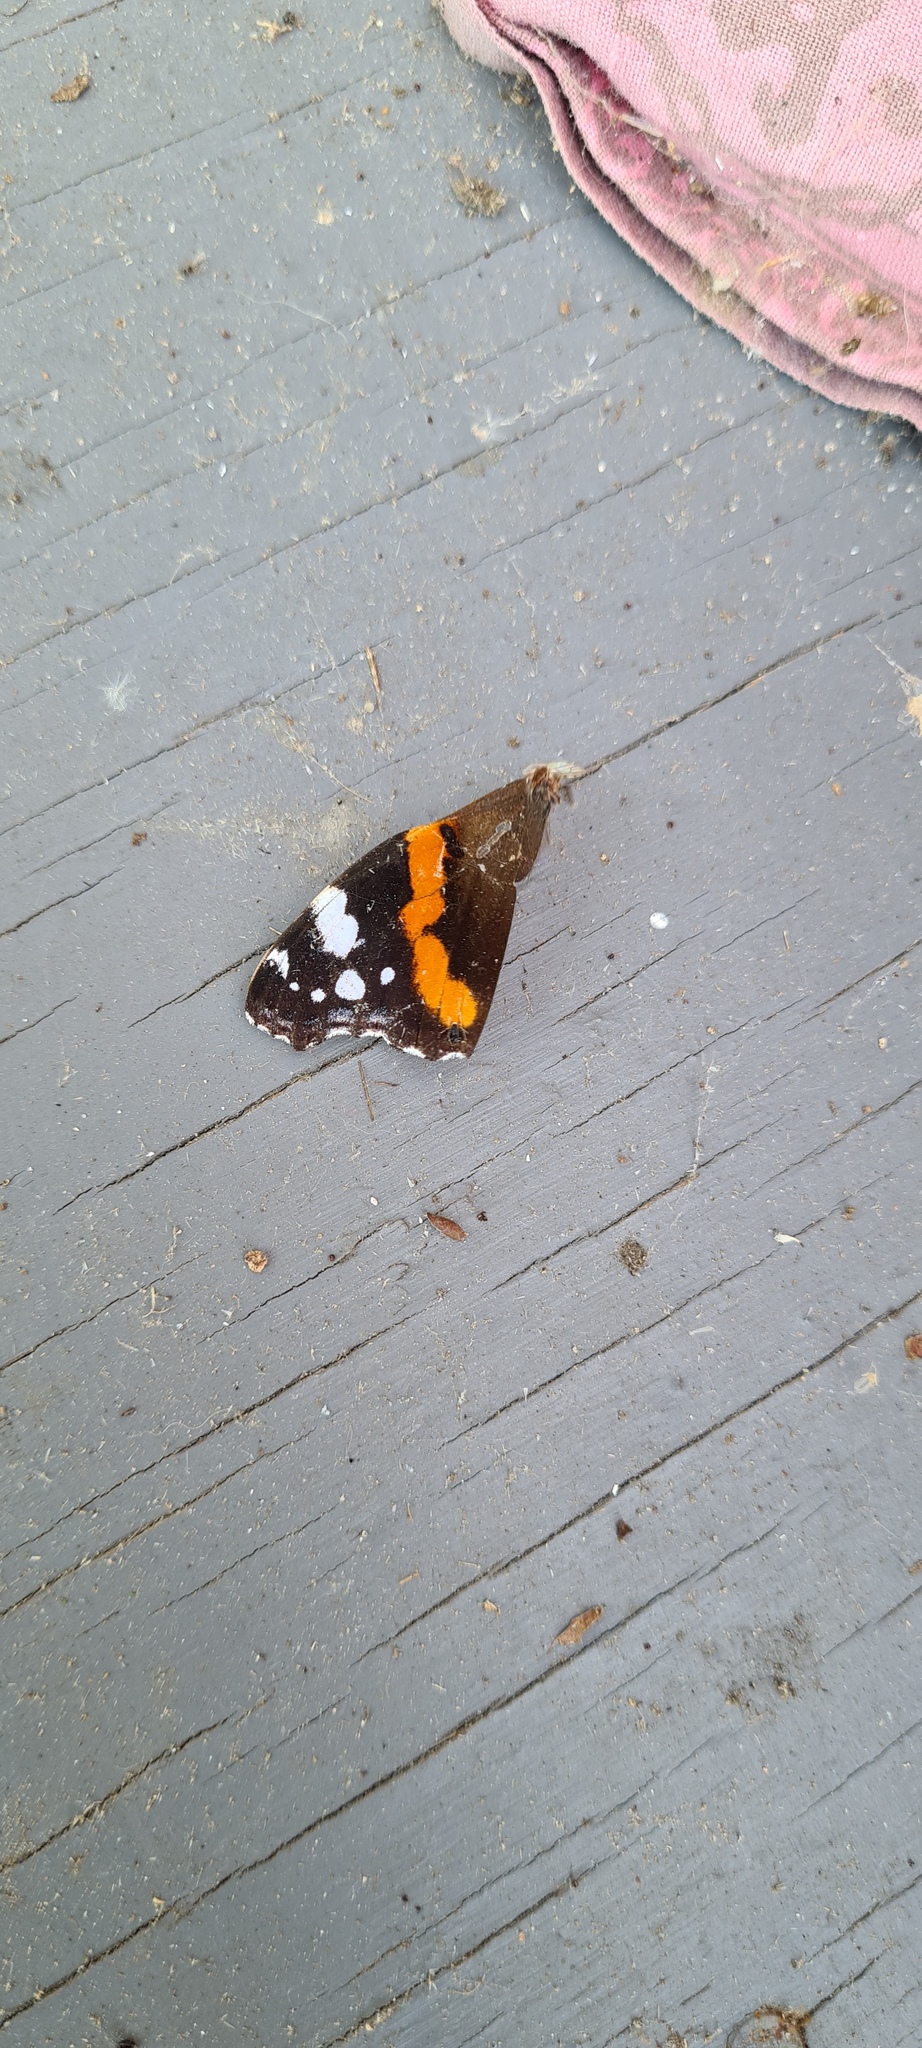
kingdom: Animalia
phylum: Arthropoda
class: Insecta
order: Lepidoptera
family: Nymphalidae
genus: Vanessa
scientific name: Vanessa atalanta
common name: Red admiral
